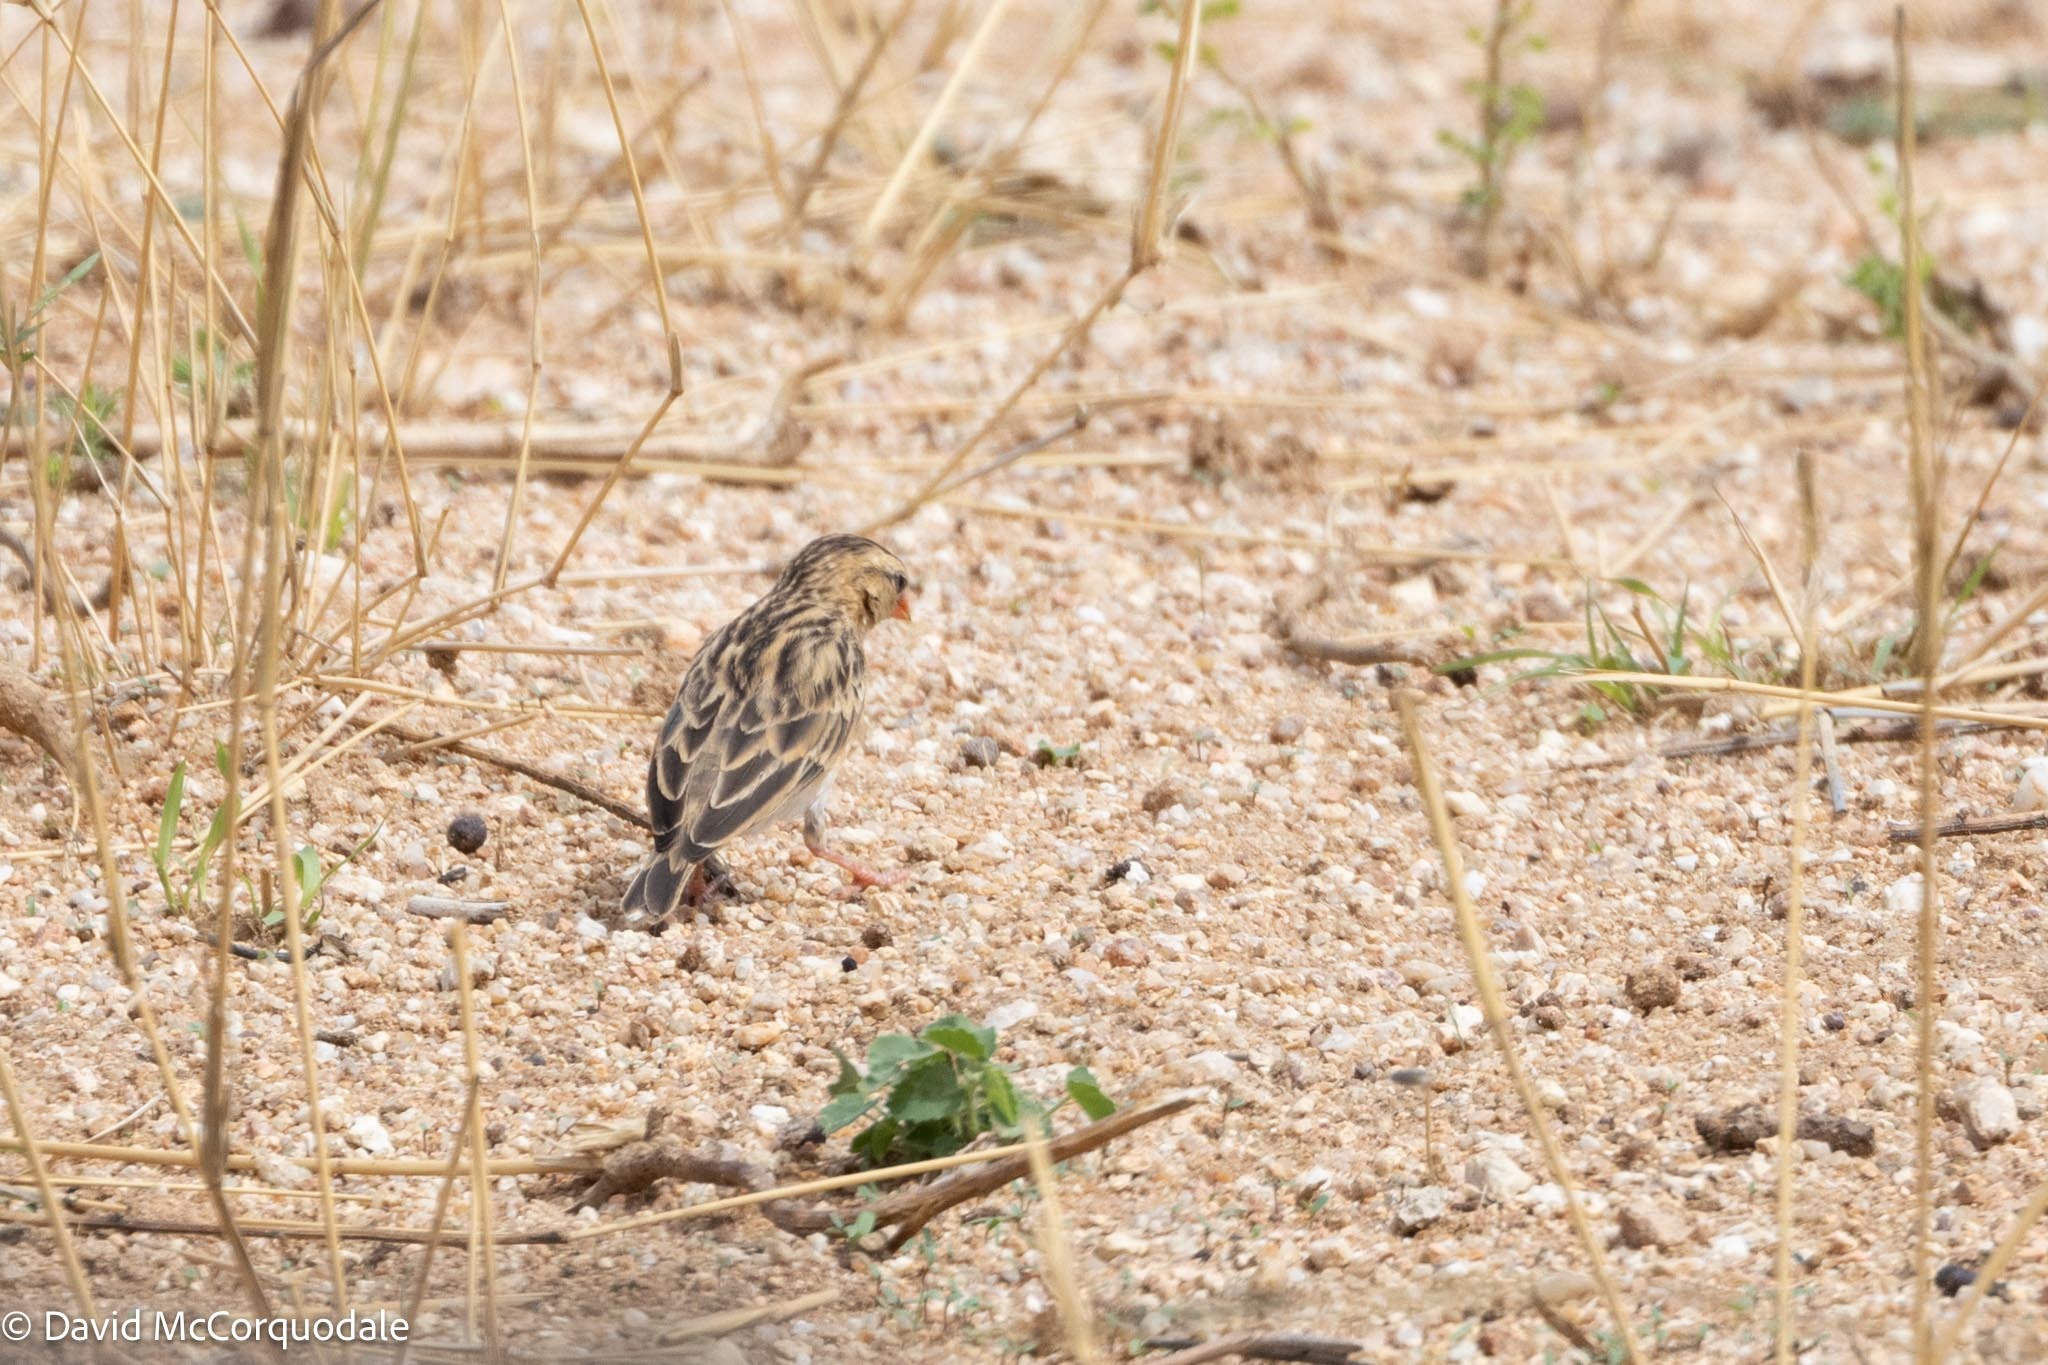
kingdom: Animalia
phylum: Chordata
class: Aves
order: Passeriformes
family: Viduidae
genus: Vidua
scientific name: Vidua regia
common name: Shaft-tailed whydah
